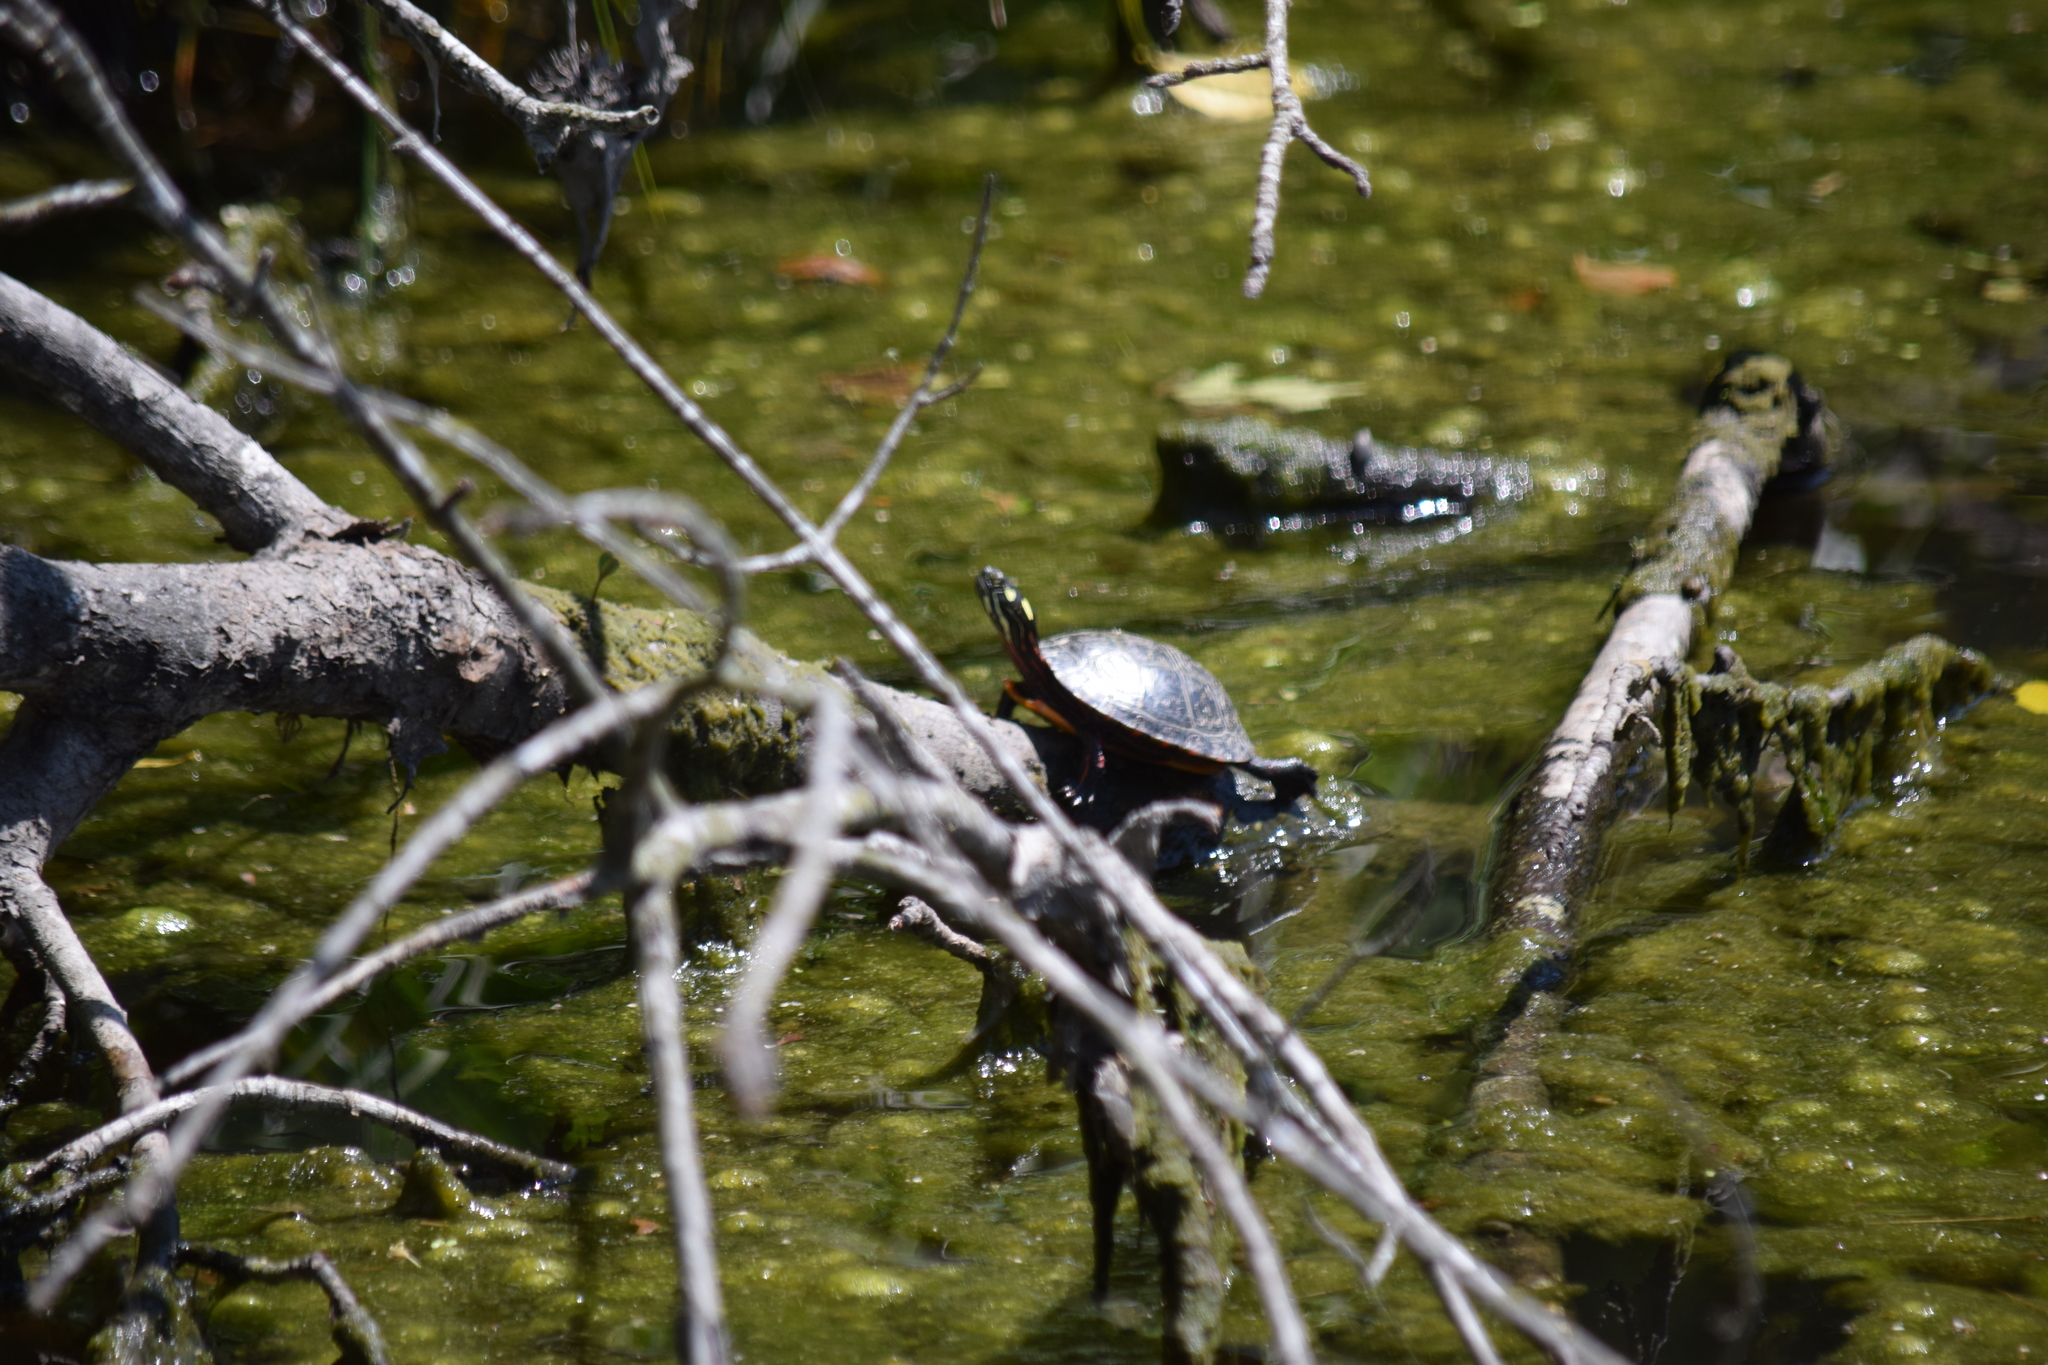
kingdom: Animalia
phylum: Chordata
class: Testudines
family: Emydidae
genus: Chrysemys
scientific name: Chrysemys picta
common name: Painted turtle
